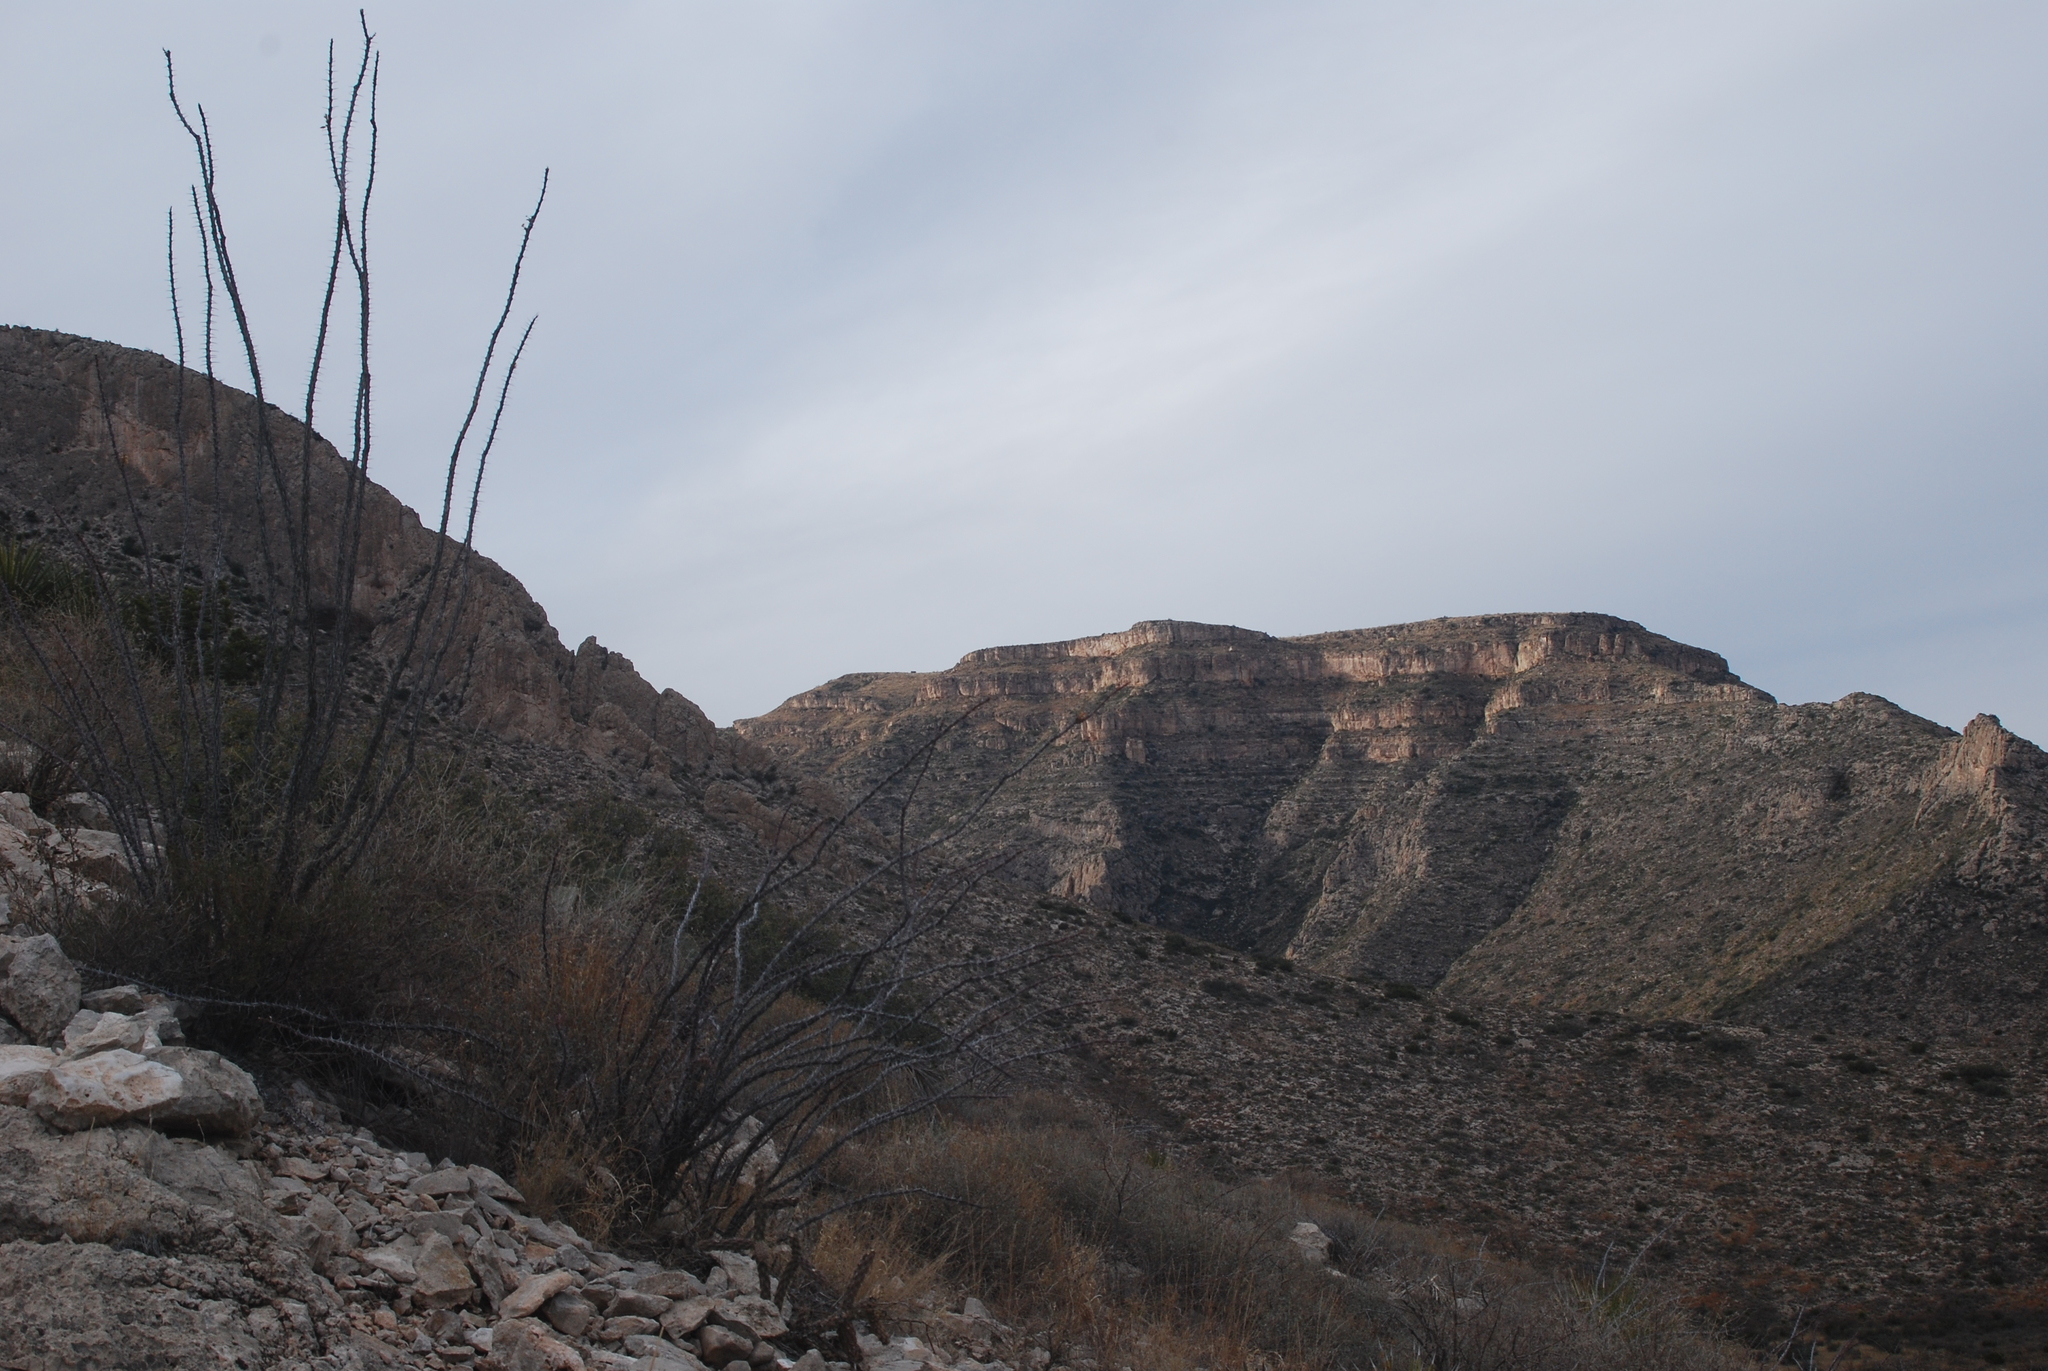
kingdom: Plantae
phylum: Tracheophyta
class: Magnoliopsida
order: Ericales
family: Fouquieriaceae
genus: Fouquieria
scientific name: Fouquieria splendens
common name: Vine-cactus
